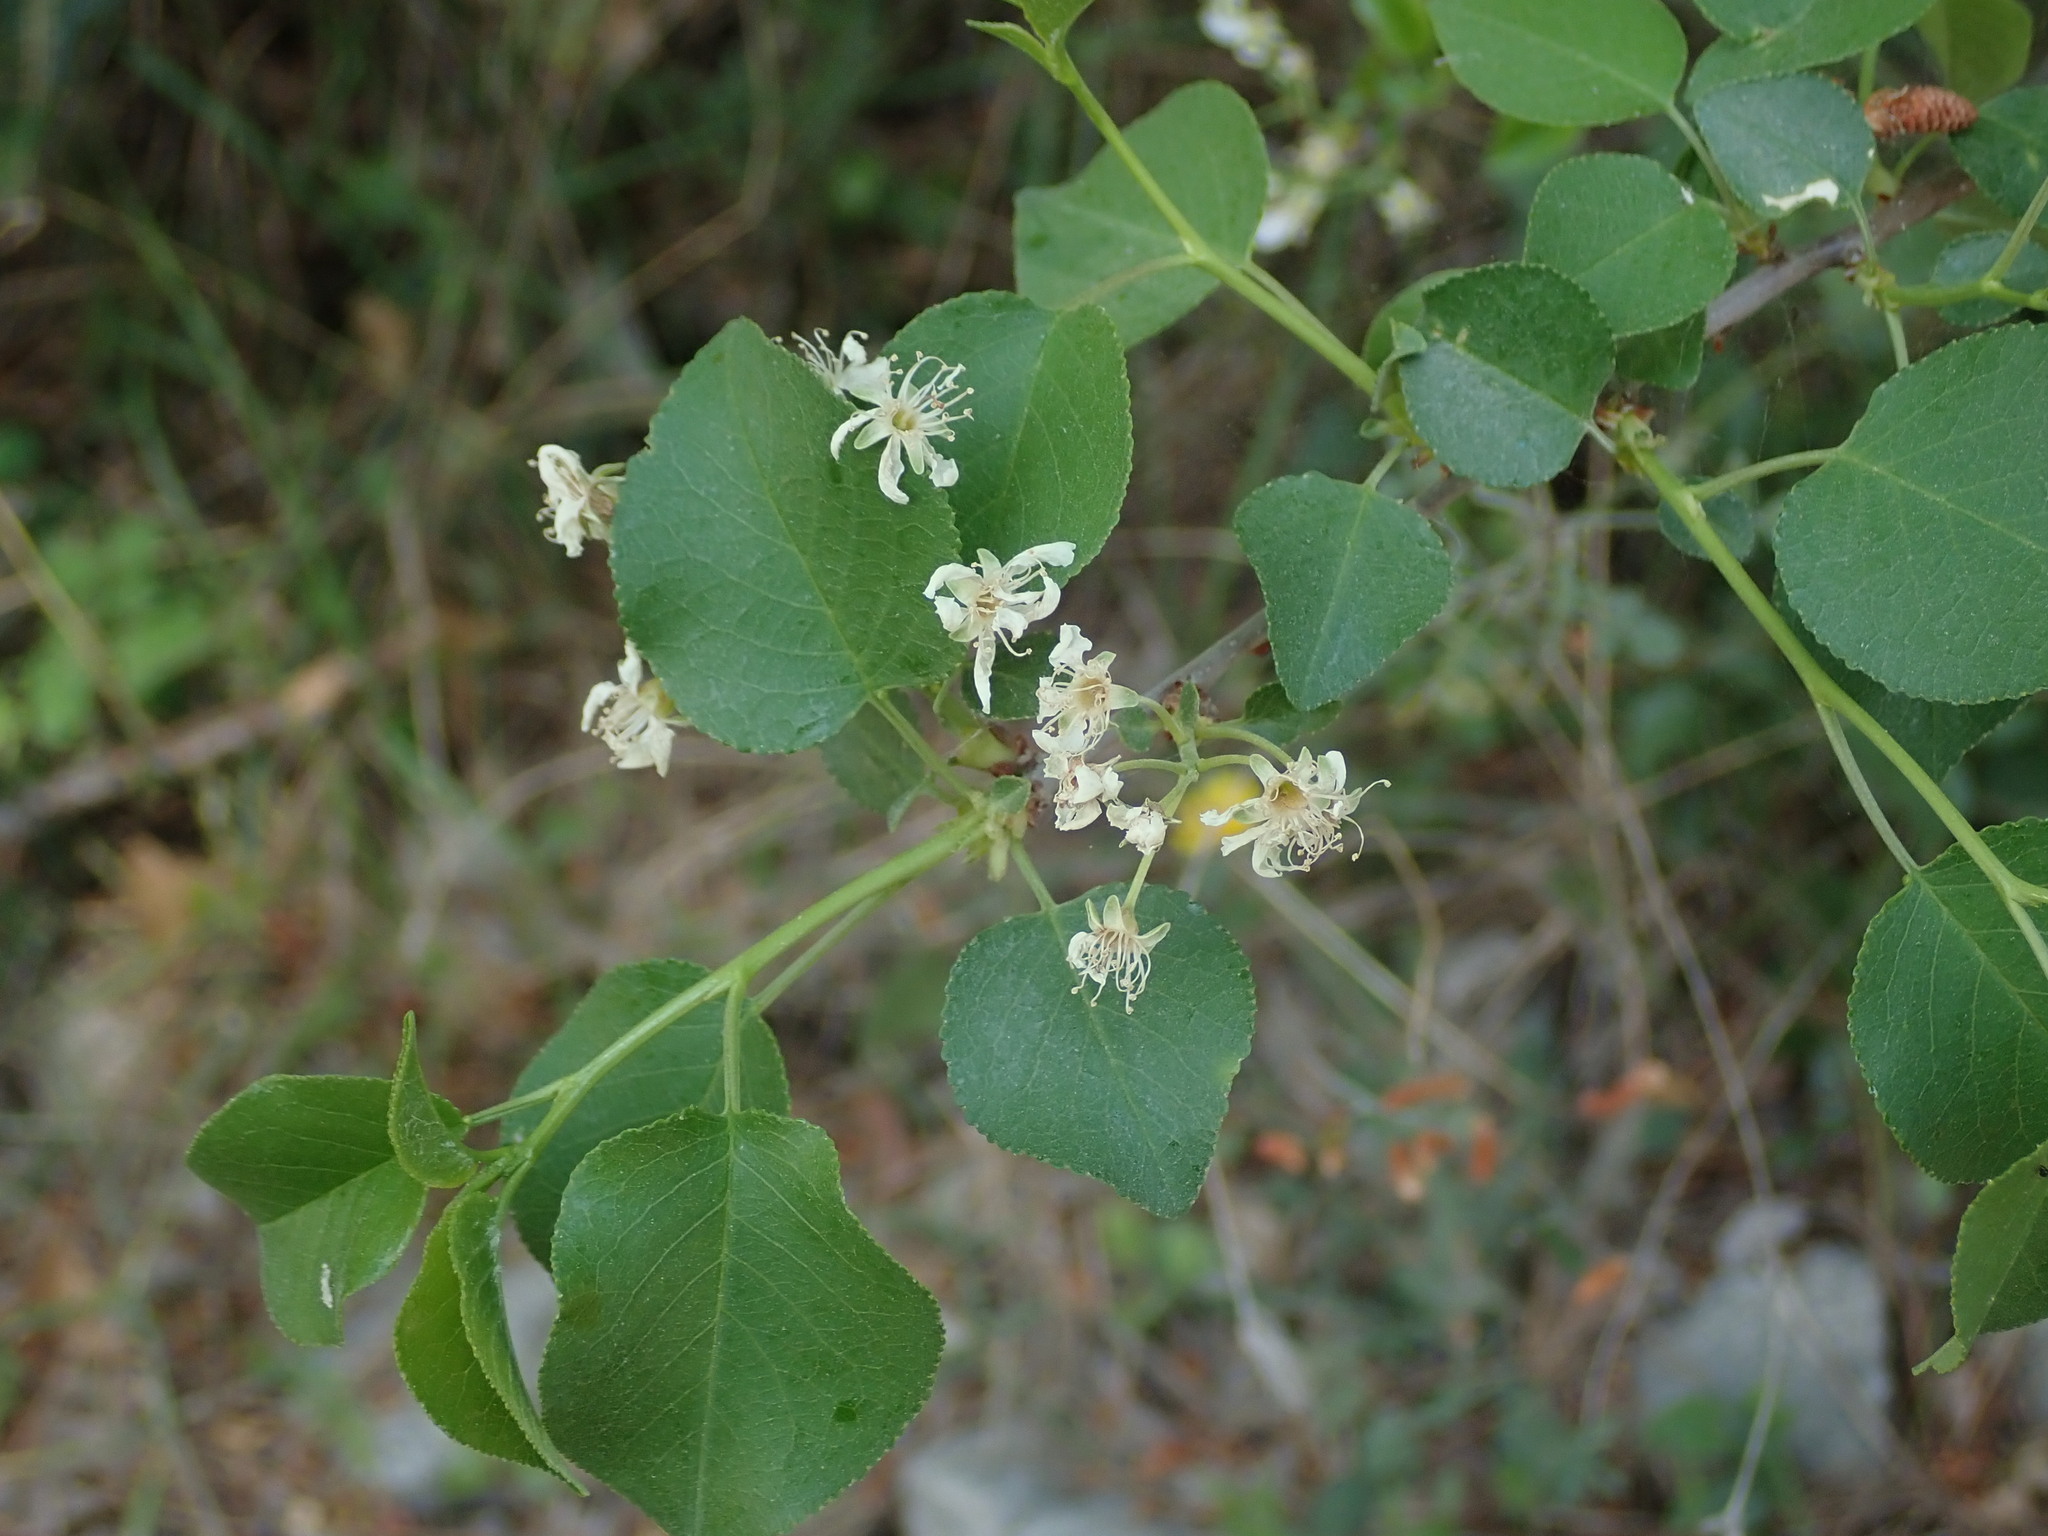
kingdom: Plantae
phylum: Tracheophyta
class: Magnoliopsida
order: Rosales
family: Rosaceae
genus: Prunus
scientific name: Prunus mahaleb
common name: Mahaleb cherry
